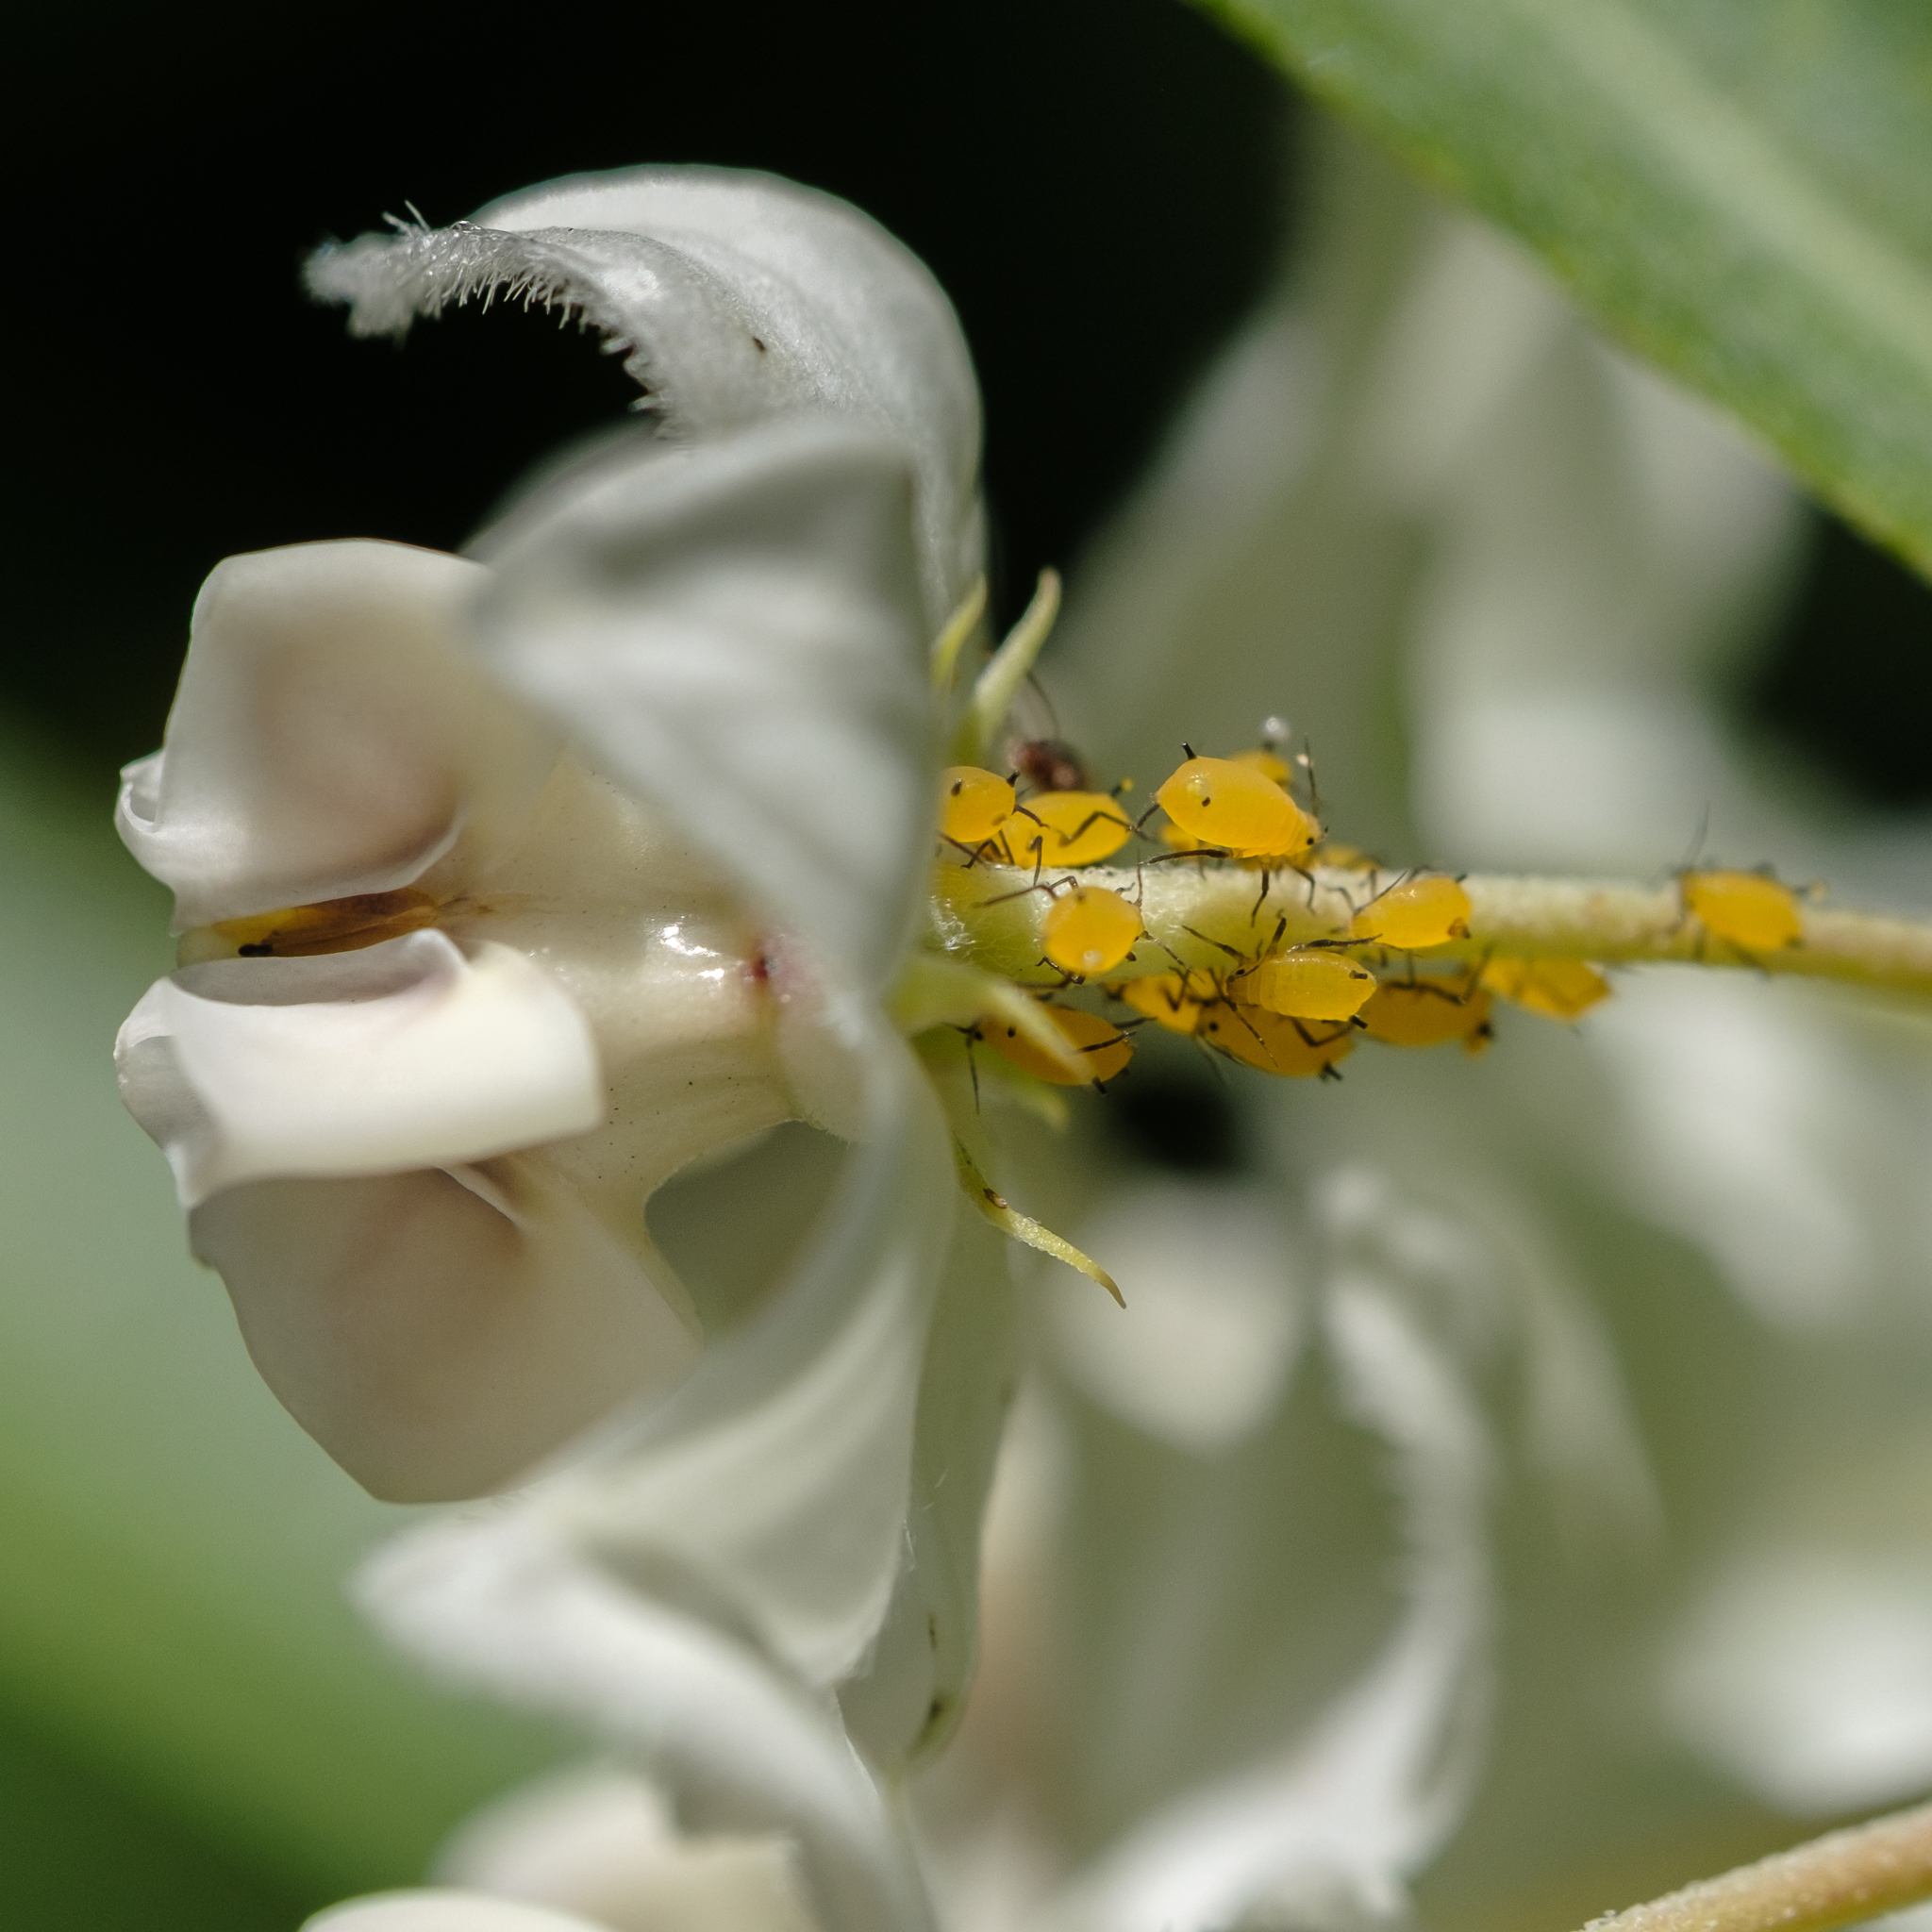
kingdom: Animalia
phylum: Arthropoda
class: Insecta
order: Hemiptera
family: Aphididae
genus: Aphis
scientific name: Aphis nerii
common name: Oleander aphid
